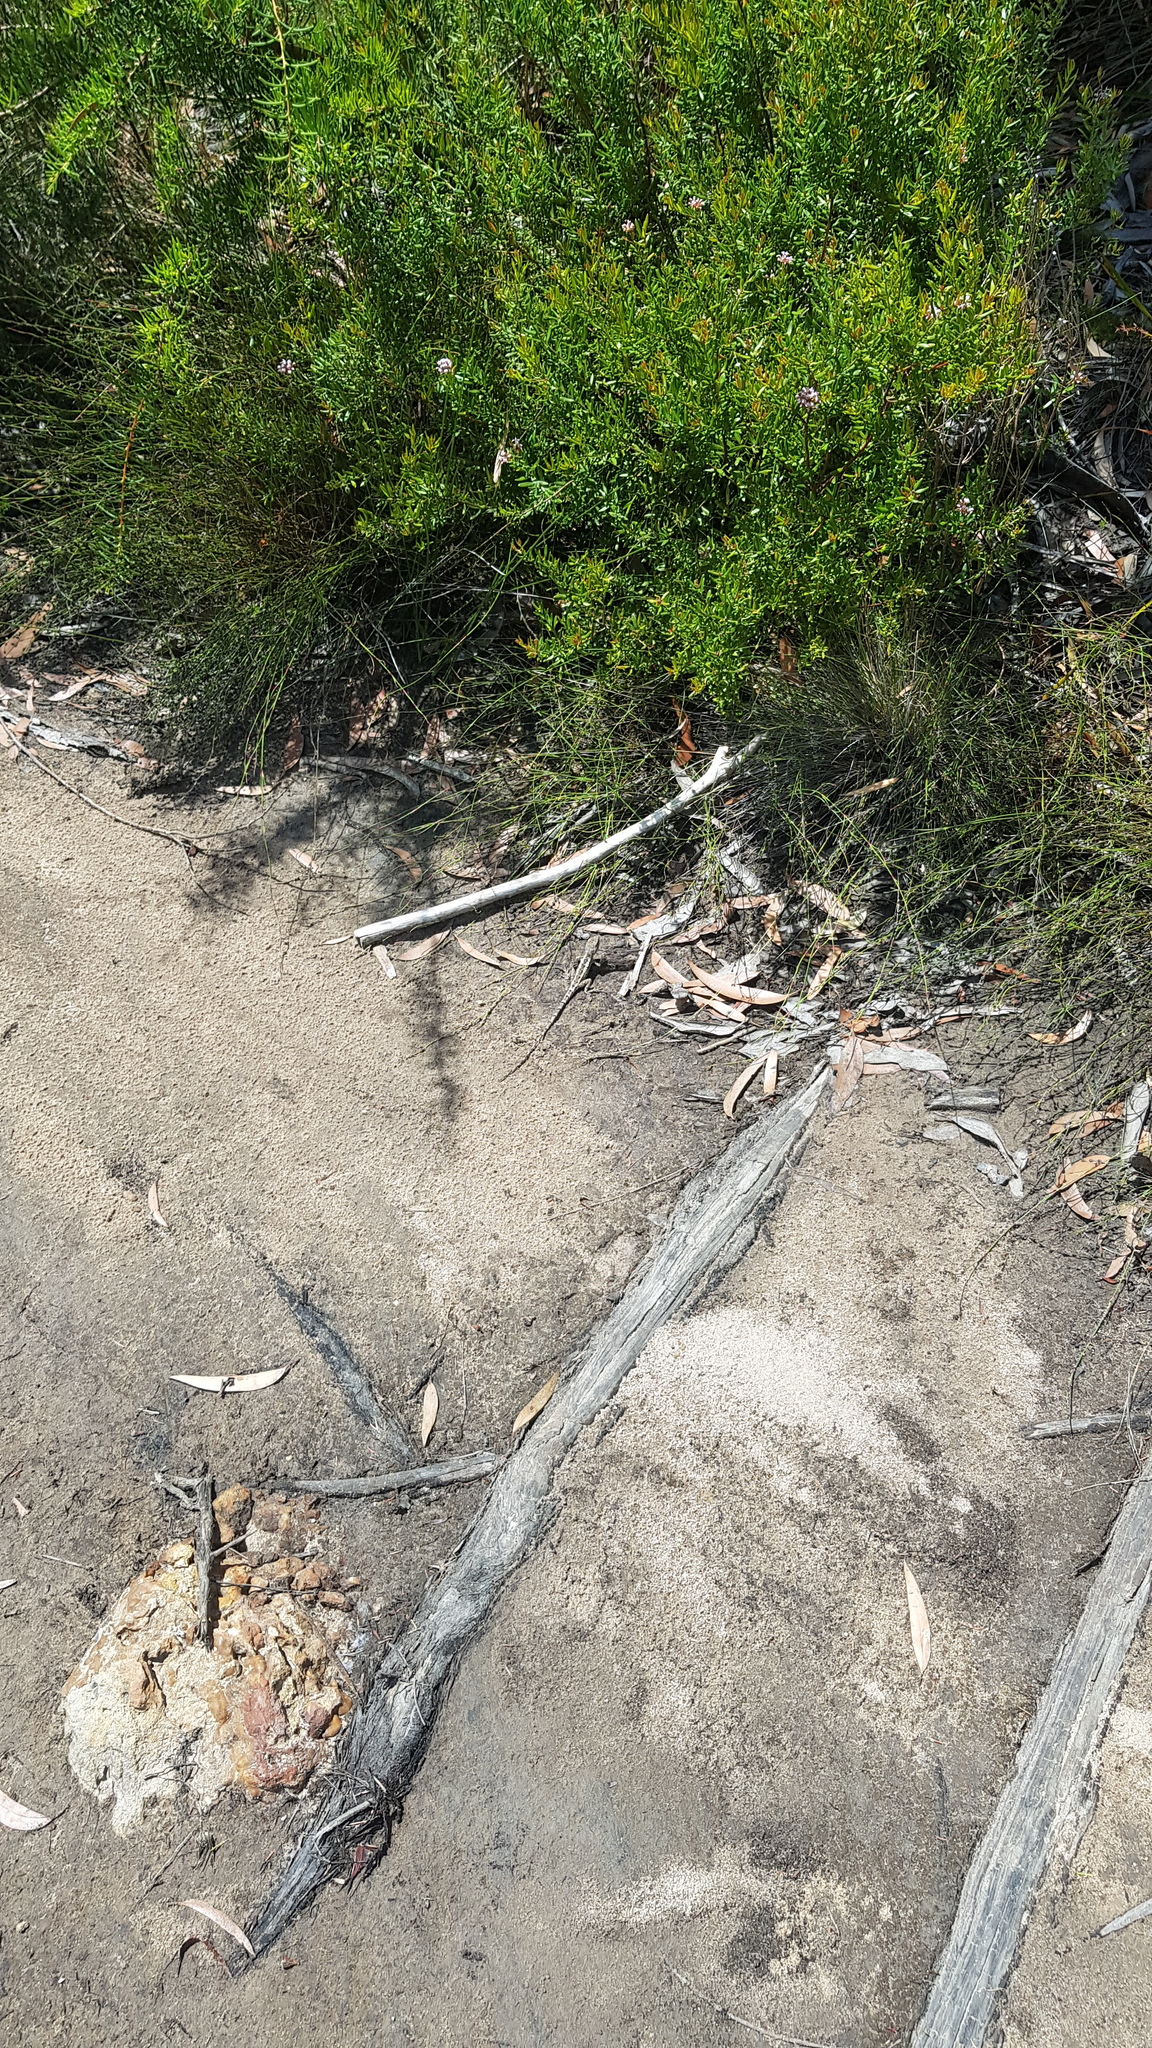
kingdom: Animalia
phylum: Chordata
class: Squamata
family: Agamidae
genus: Amphibolurus
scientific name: Amphibolurus muricatus
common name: Jacky lizard
